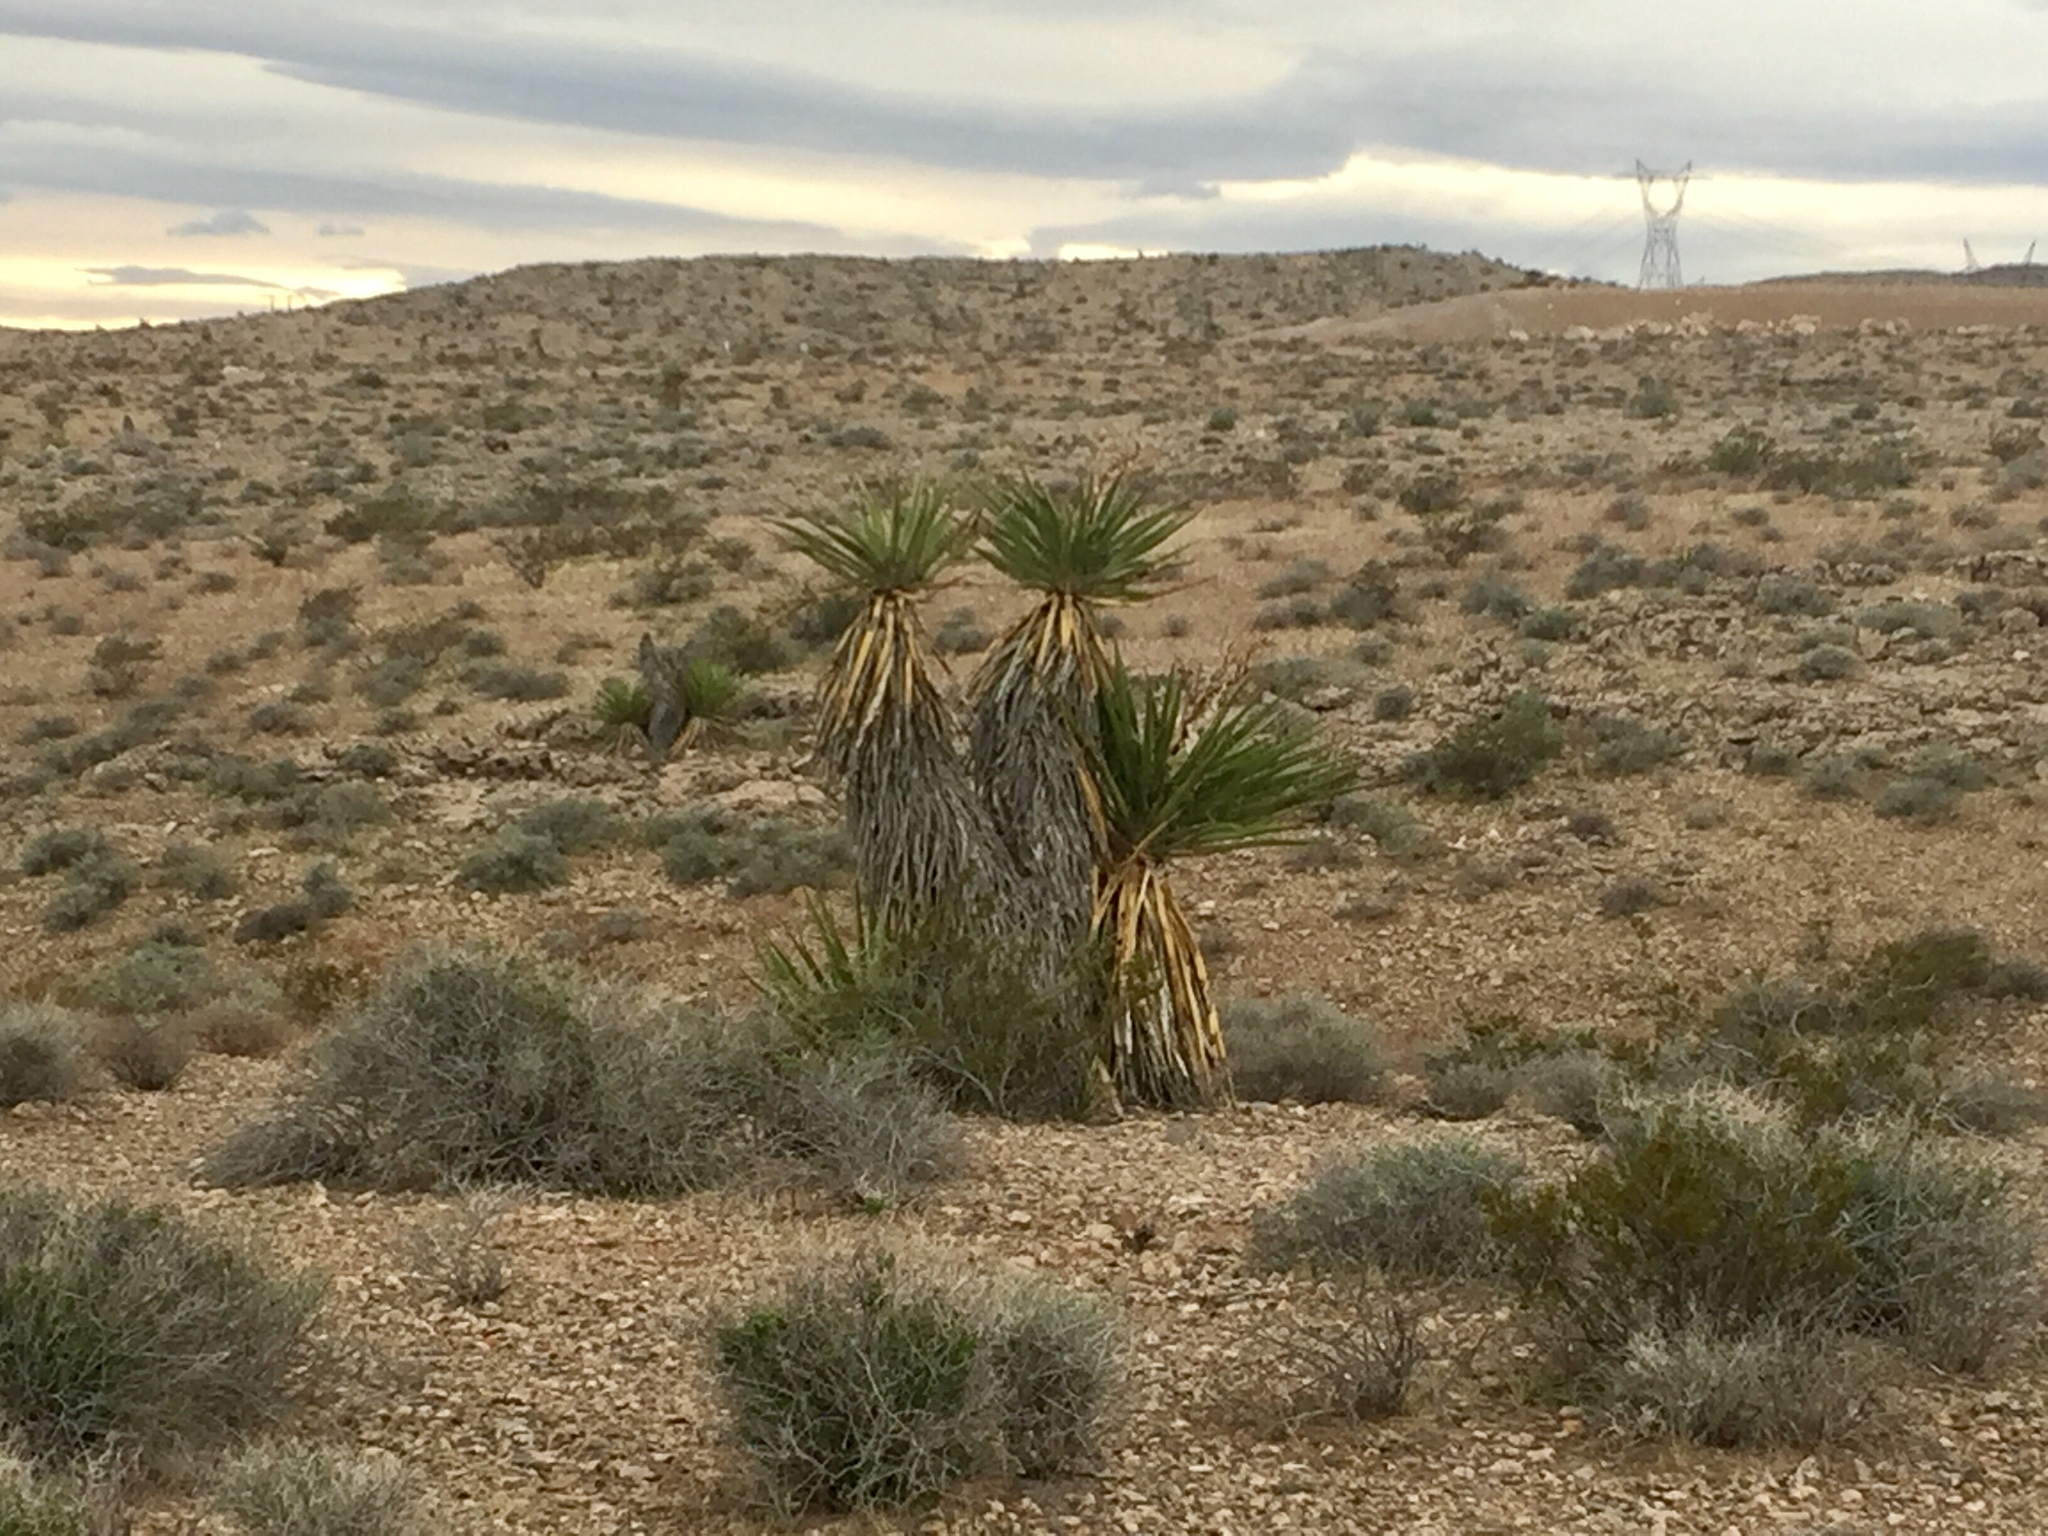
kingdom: Plantae
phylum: Tracheophyta
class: Liliopsida
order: Asparagales
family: Asparagaceae
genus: Yucca
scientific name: Yucca schidigera
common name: Mojave yucca
